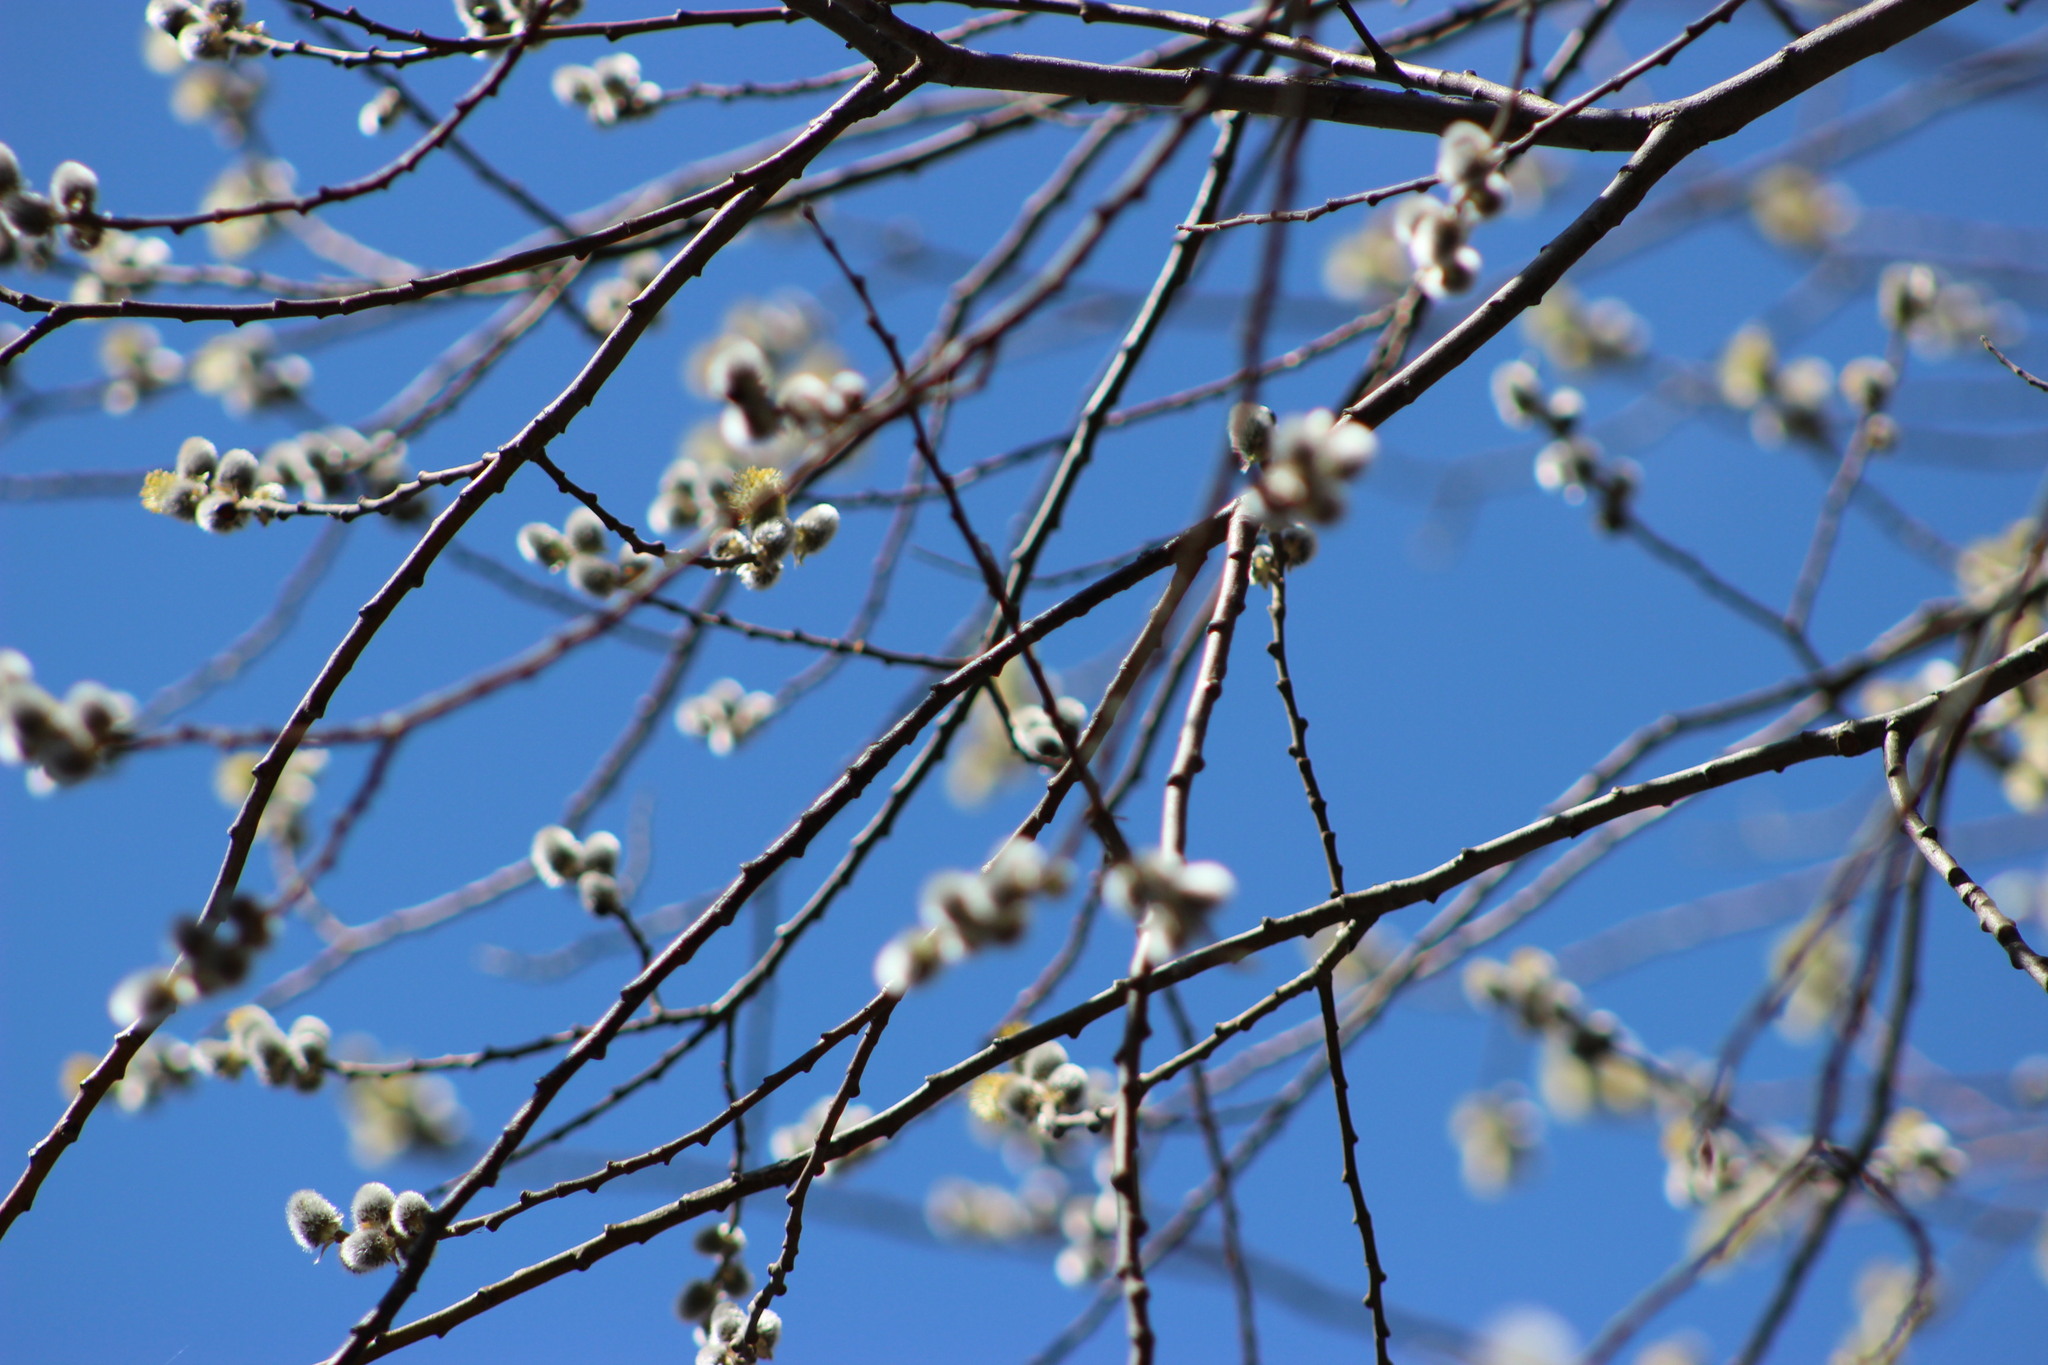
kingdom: Plantae
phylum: Tracheophyta
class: Magnoliopsida
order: Malpighiales
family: Salicaceae
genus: Salix
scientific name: Salix caprea
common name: Goat willow
